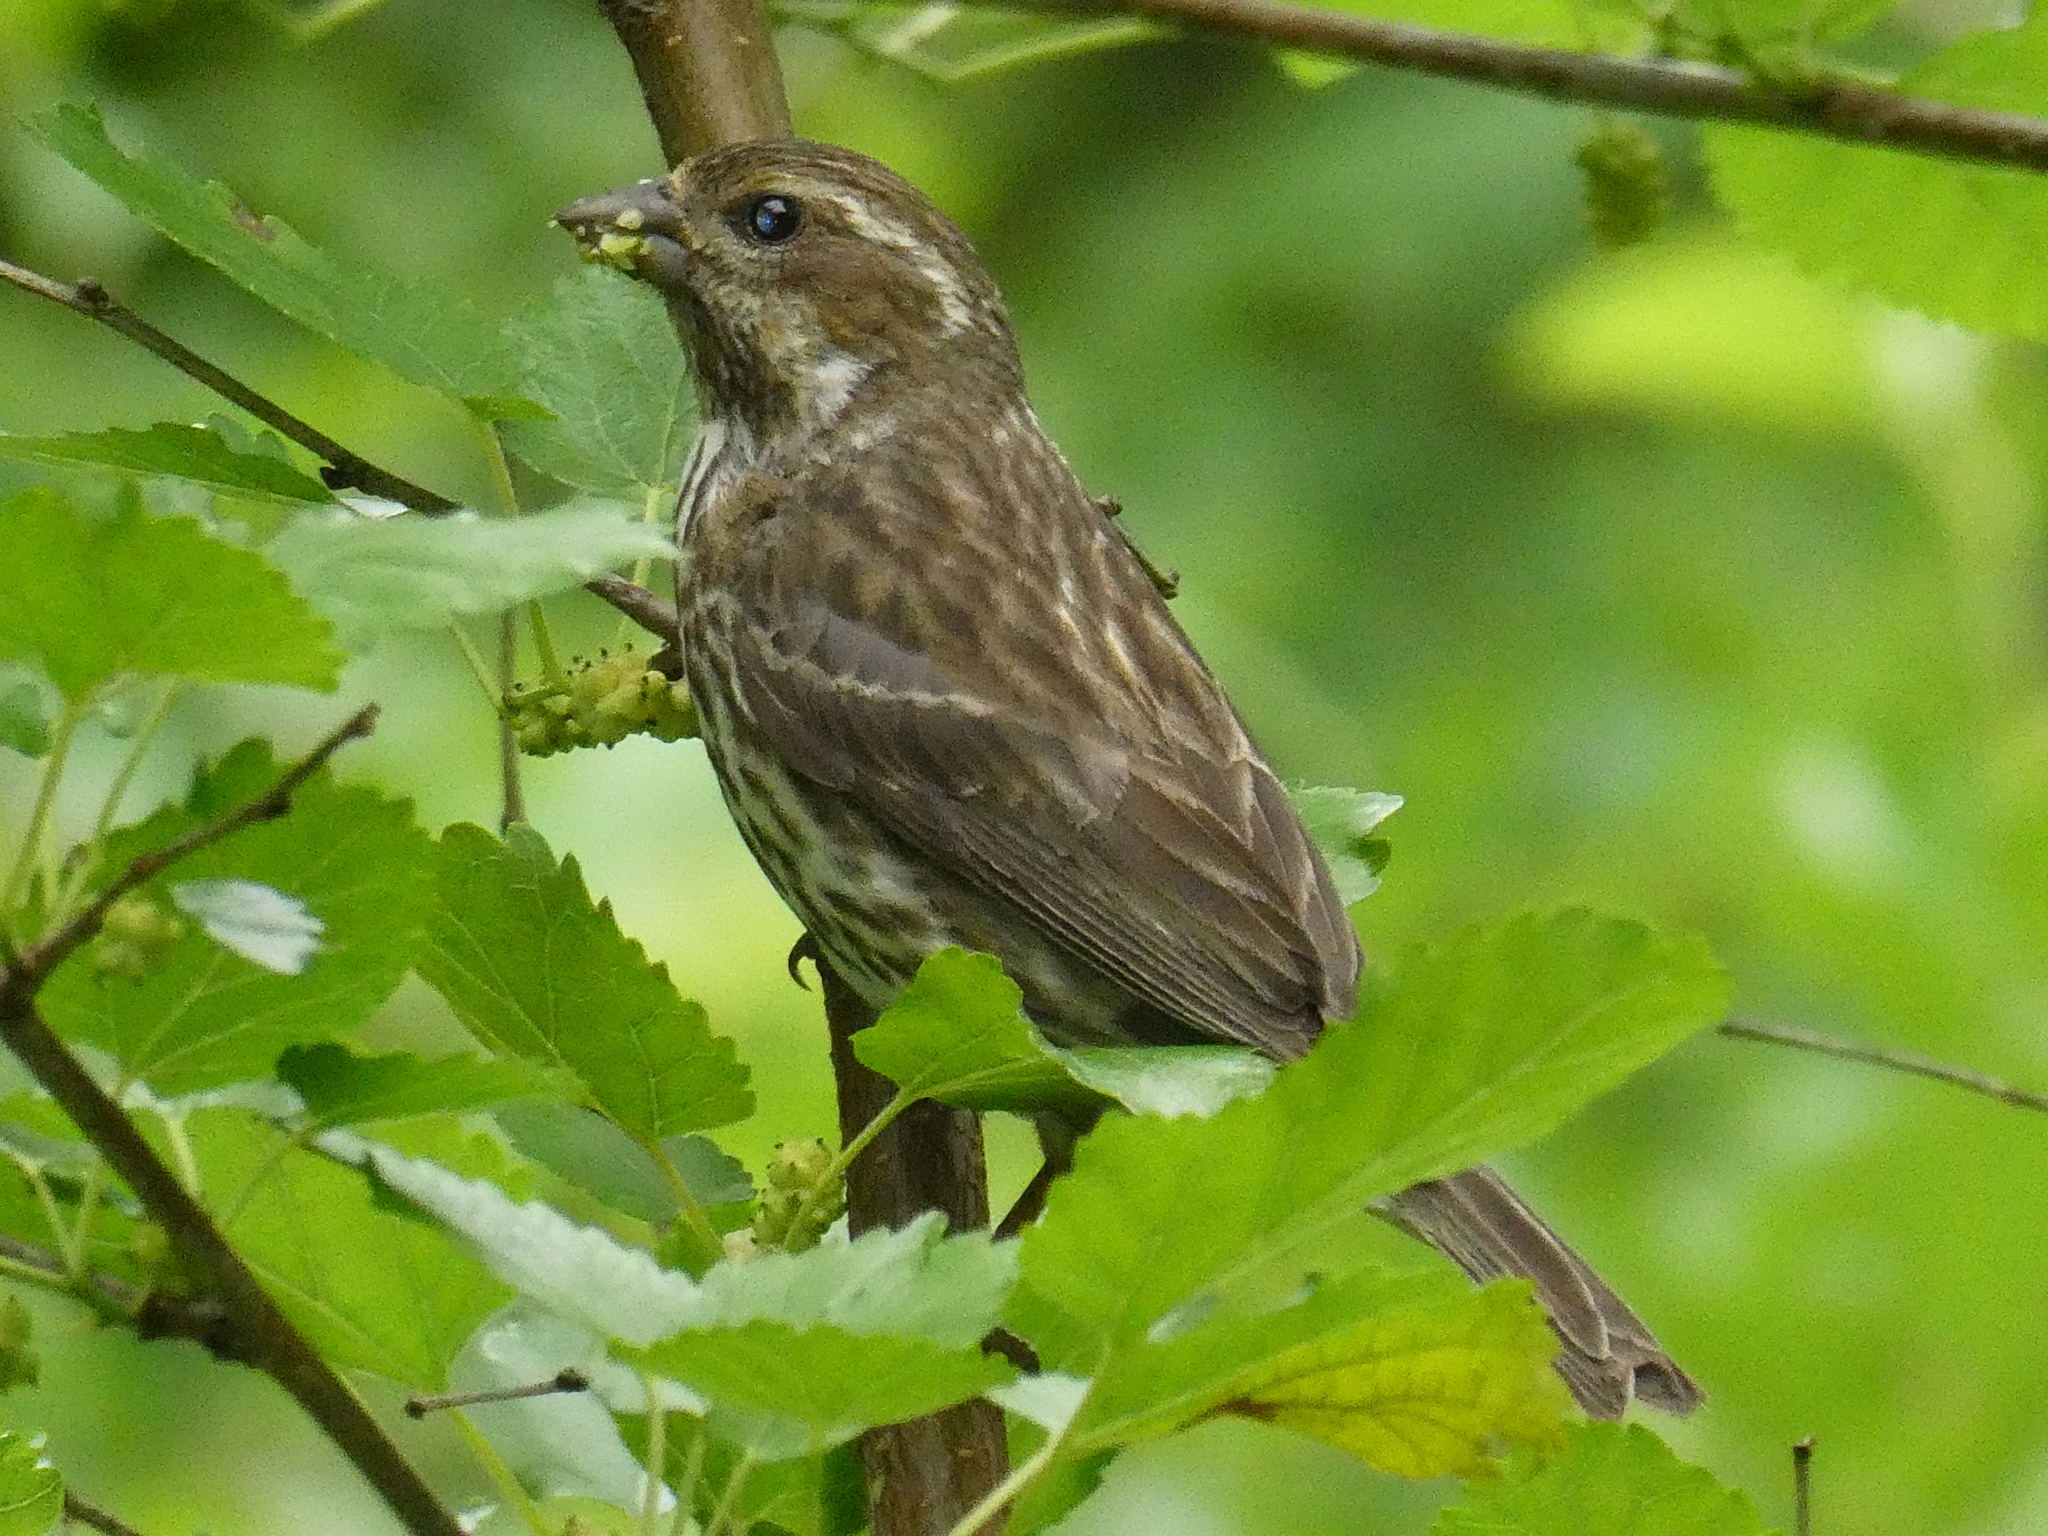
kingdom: Animalia
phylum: Chordata
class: Aves
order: Passeriformes
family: Fringillidae
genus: Haemorhous
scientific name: Haemorhous purpureus
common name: Purple finch
